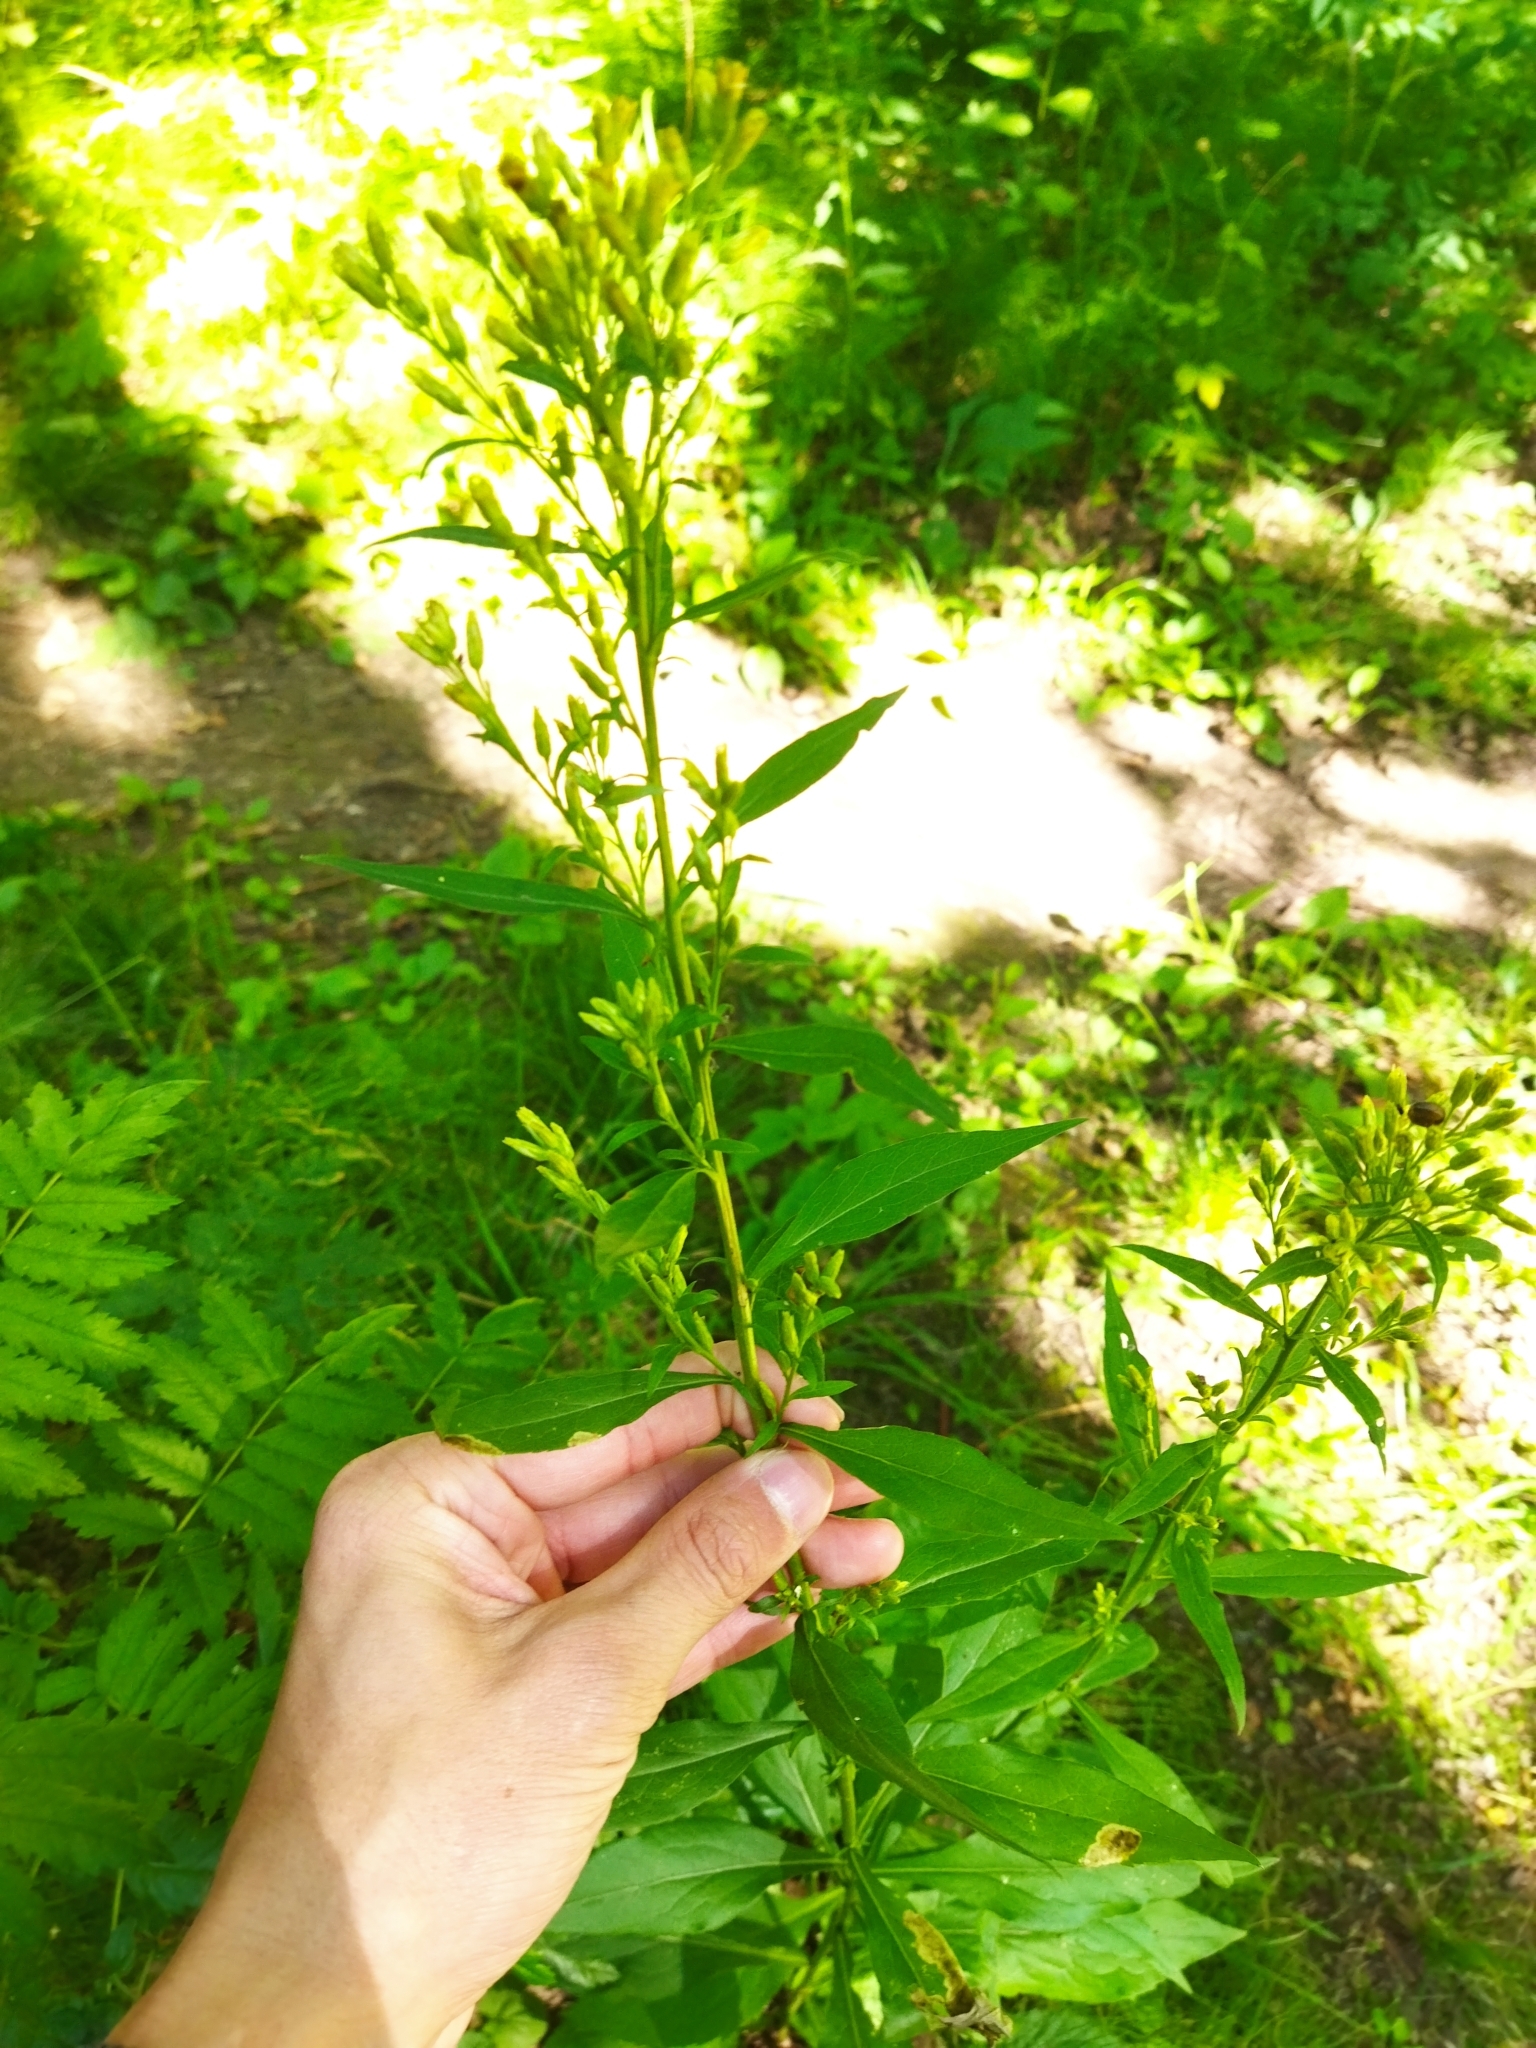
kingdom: Plantae
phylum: Tracheophyta
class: Magnoliopsida
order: Asterales
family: Asteraceae
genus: Solidago
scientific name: Solidago virgaurea
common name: Goldenrod
